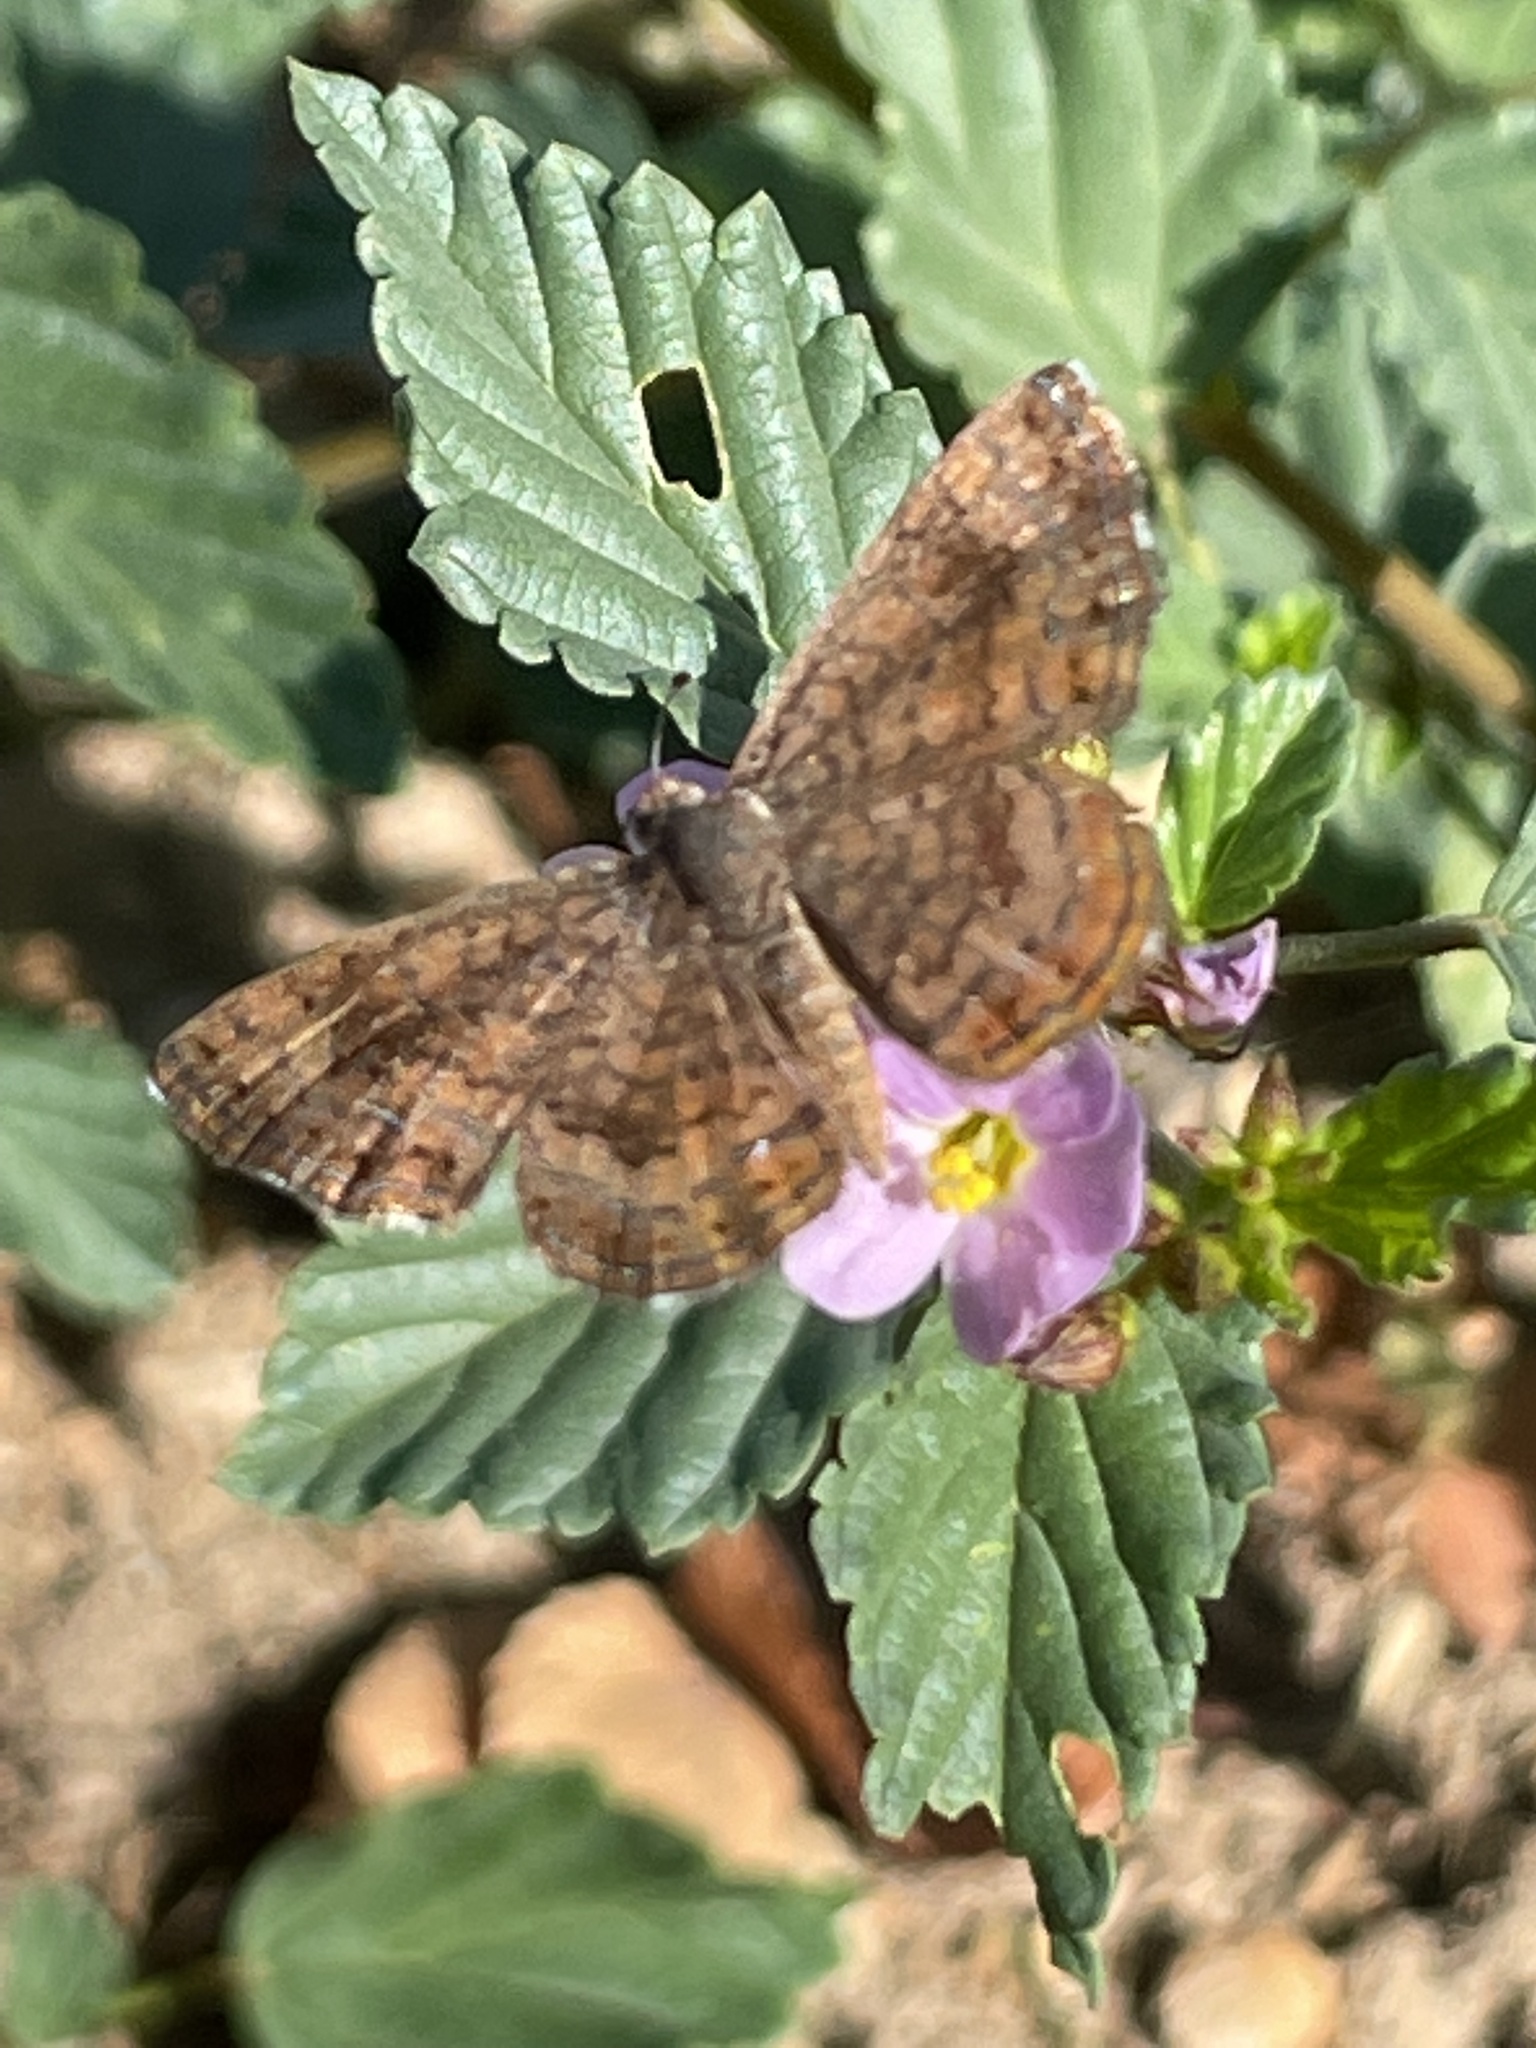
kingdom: Animalia
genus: Calephelis
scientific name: Calephelis nemesis
